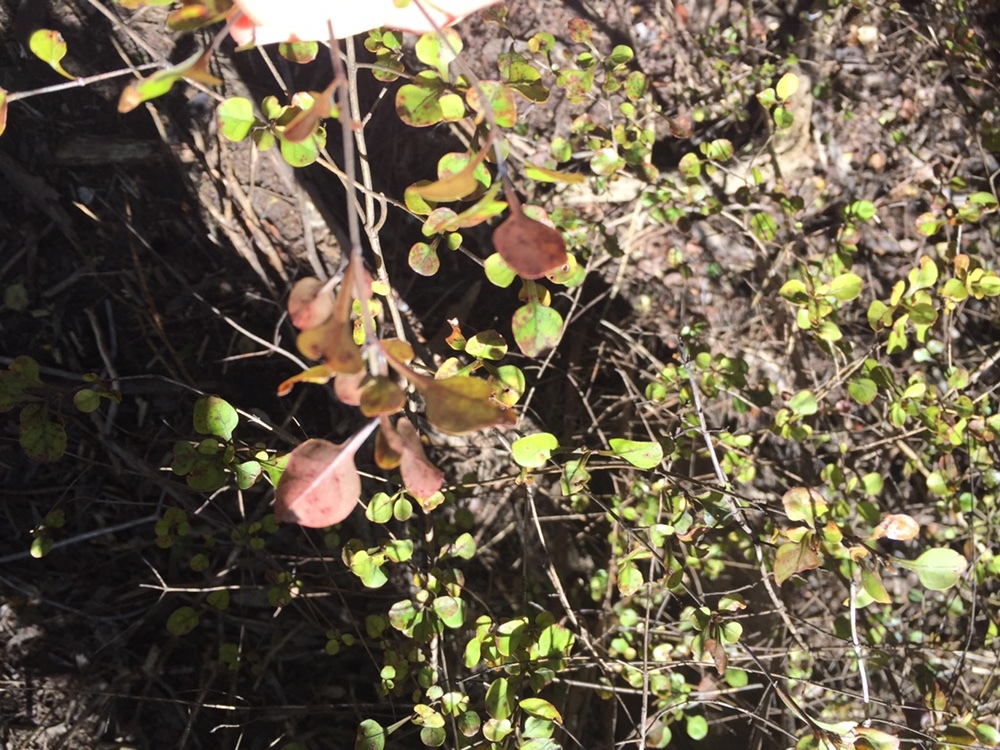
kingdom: Plantae
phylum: Tracheophyta
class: Magnoliopsida
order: Gentianales
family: Rubiaceae
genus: Coprosma
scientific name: Coprosma arborea
